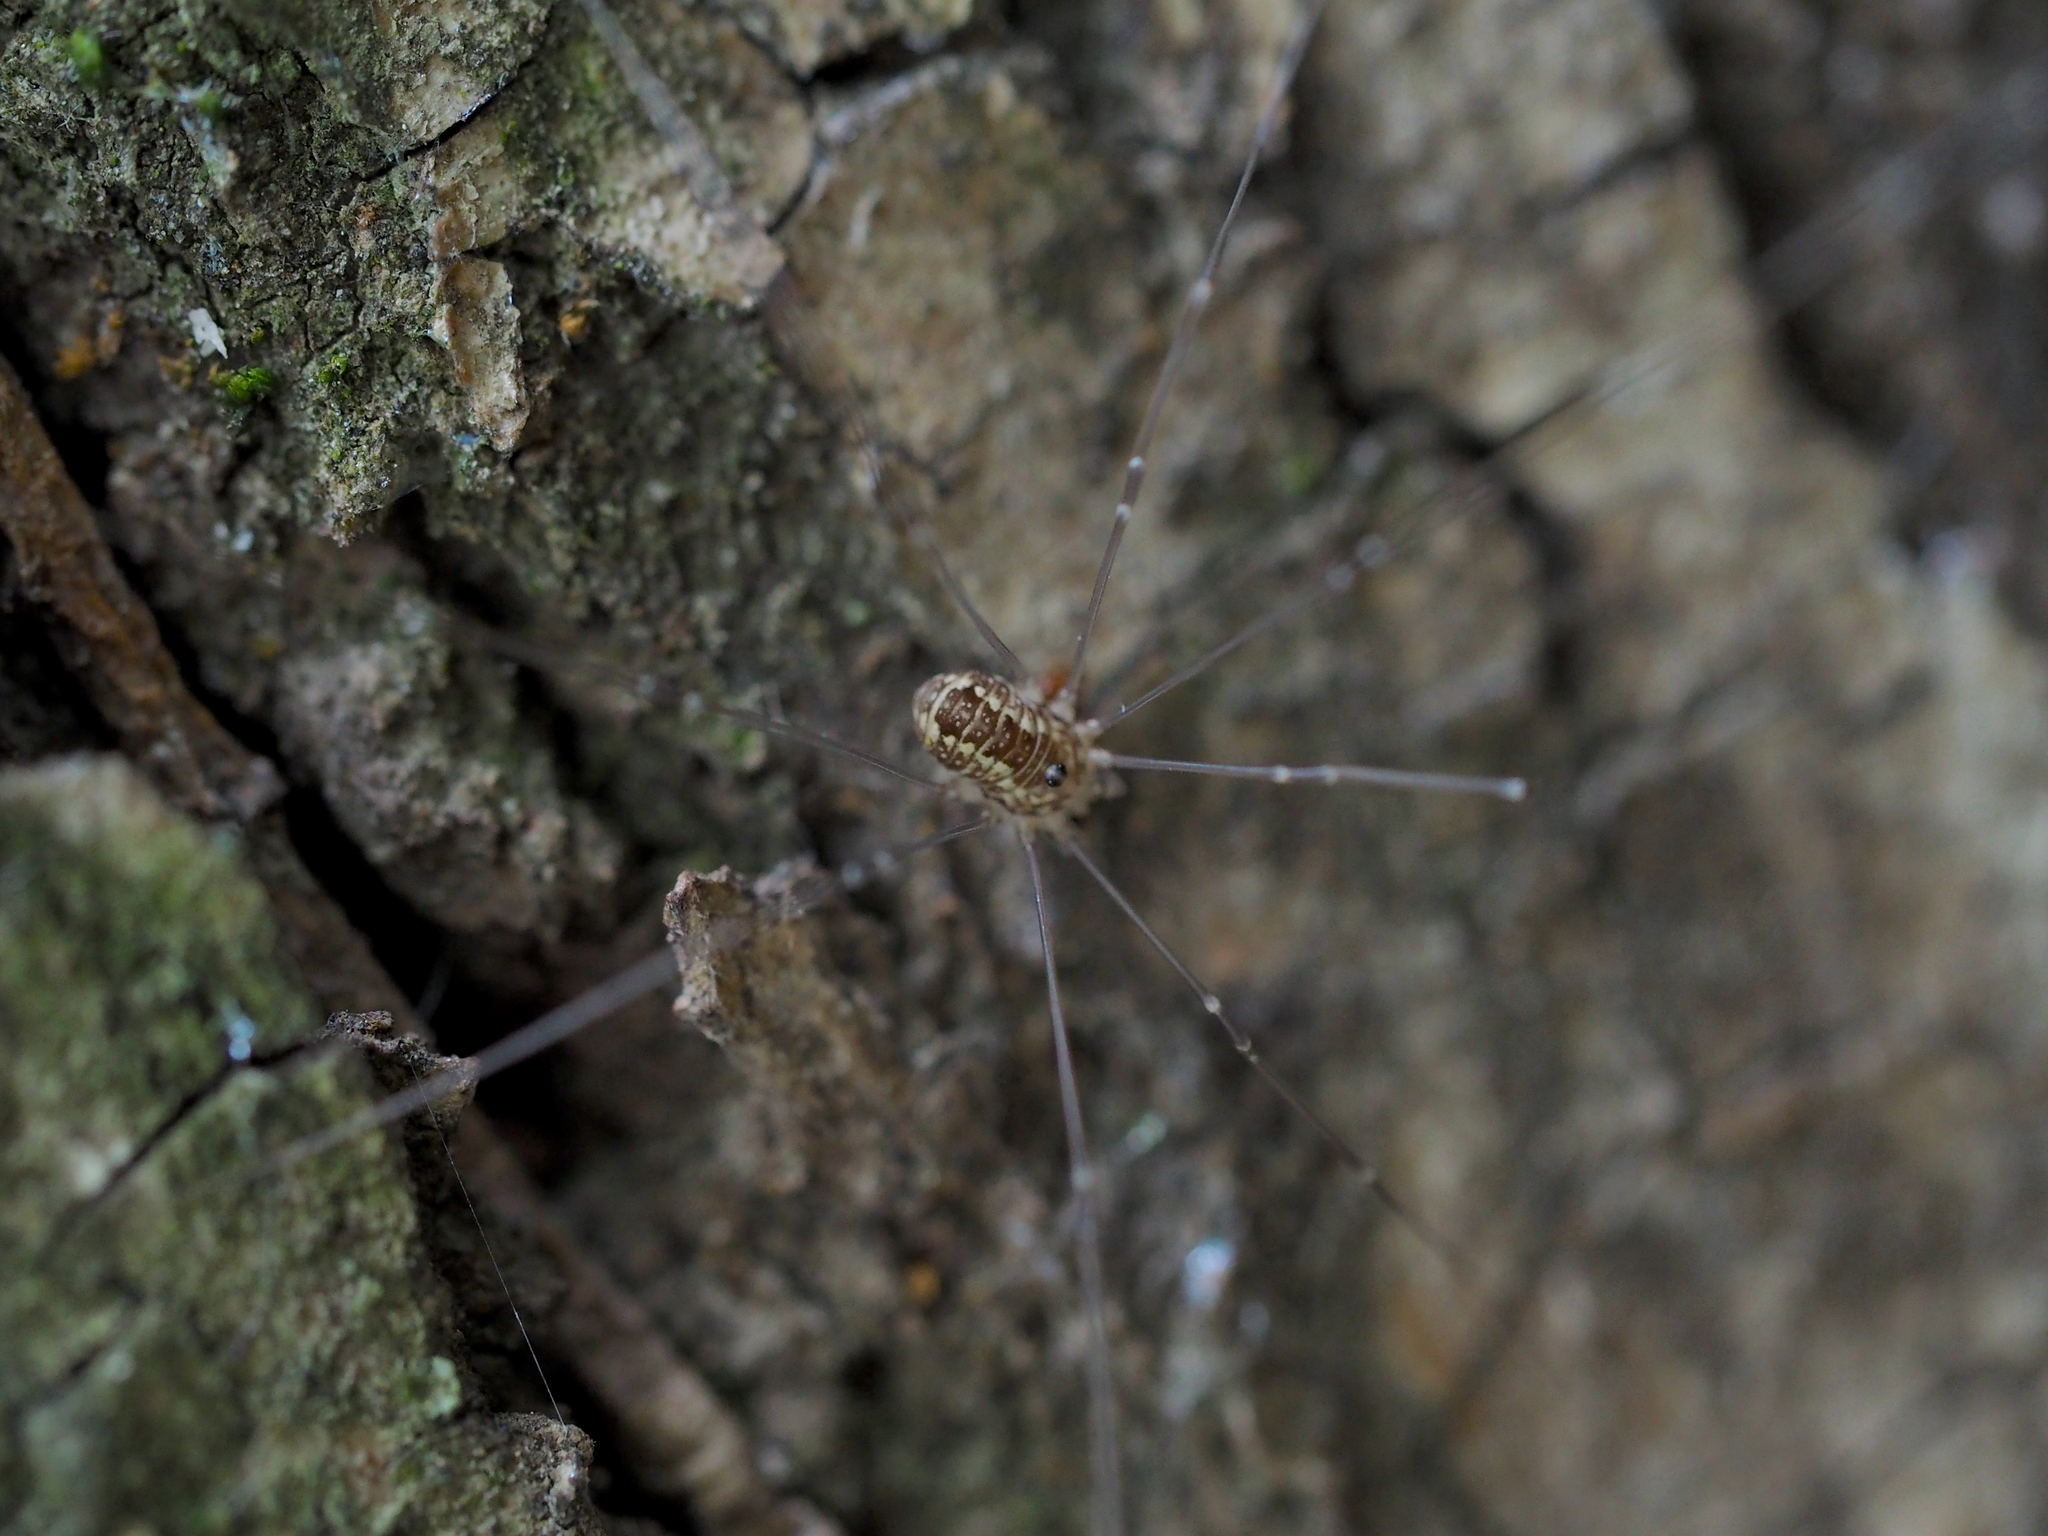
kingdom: Animalia
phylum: Arthropoda
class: Arachnida
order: Opiliones
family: Sclerosomatidae
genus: Leiobunum
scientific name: Leiobunum
